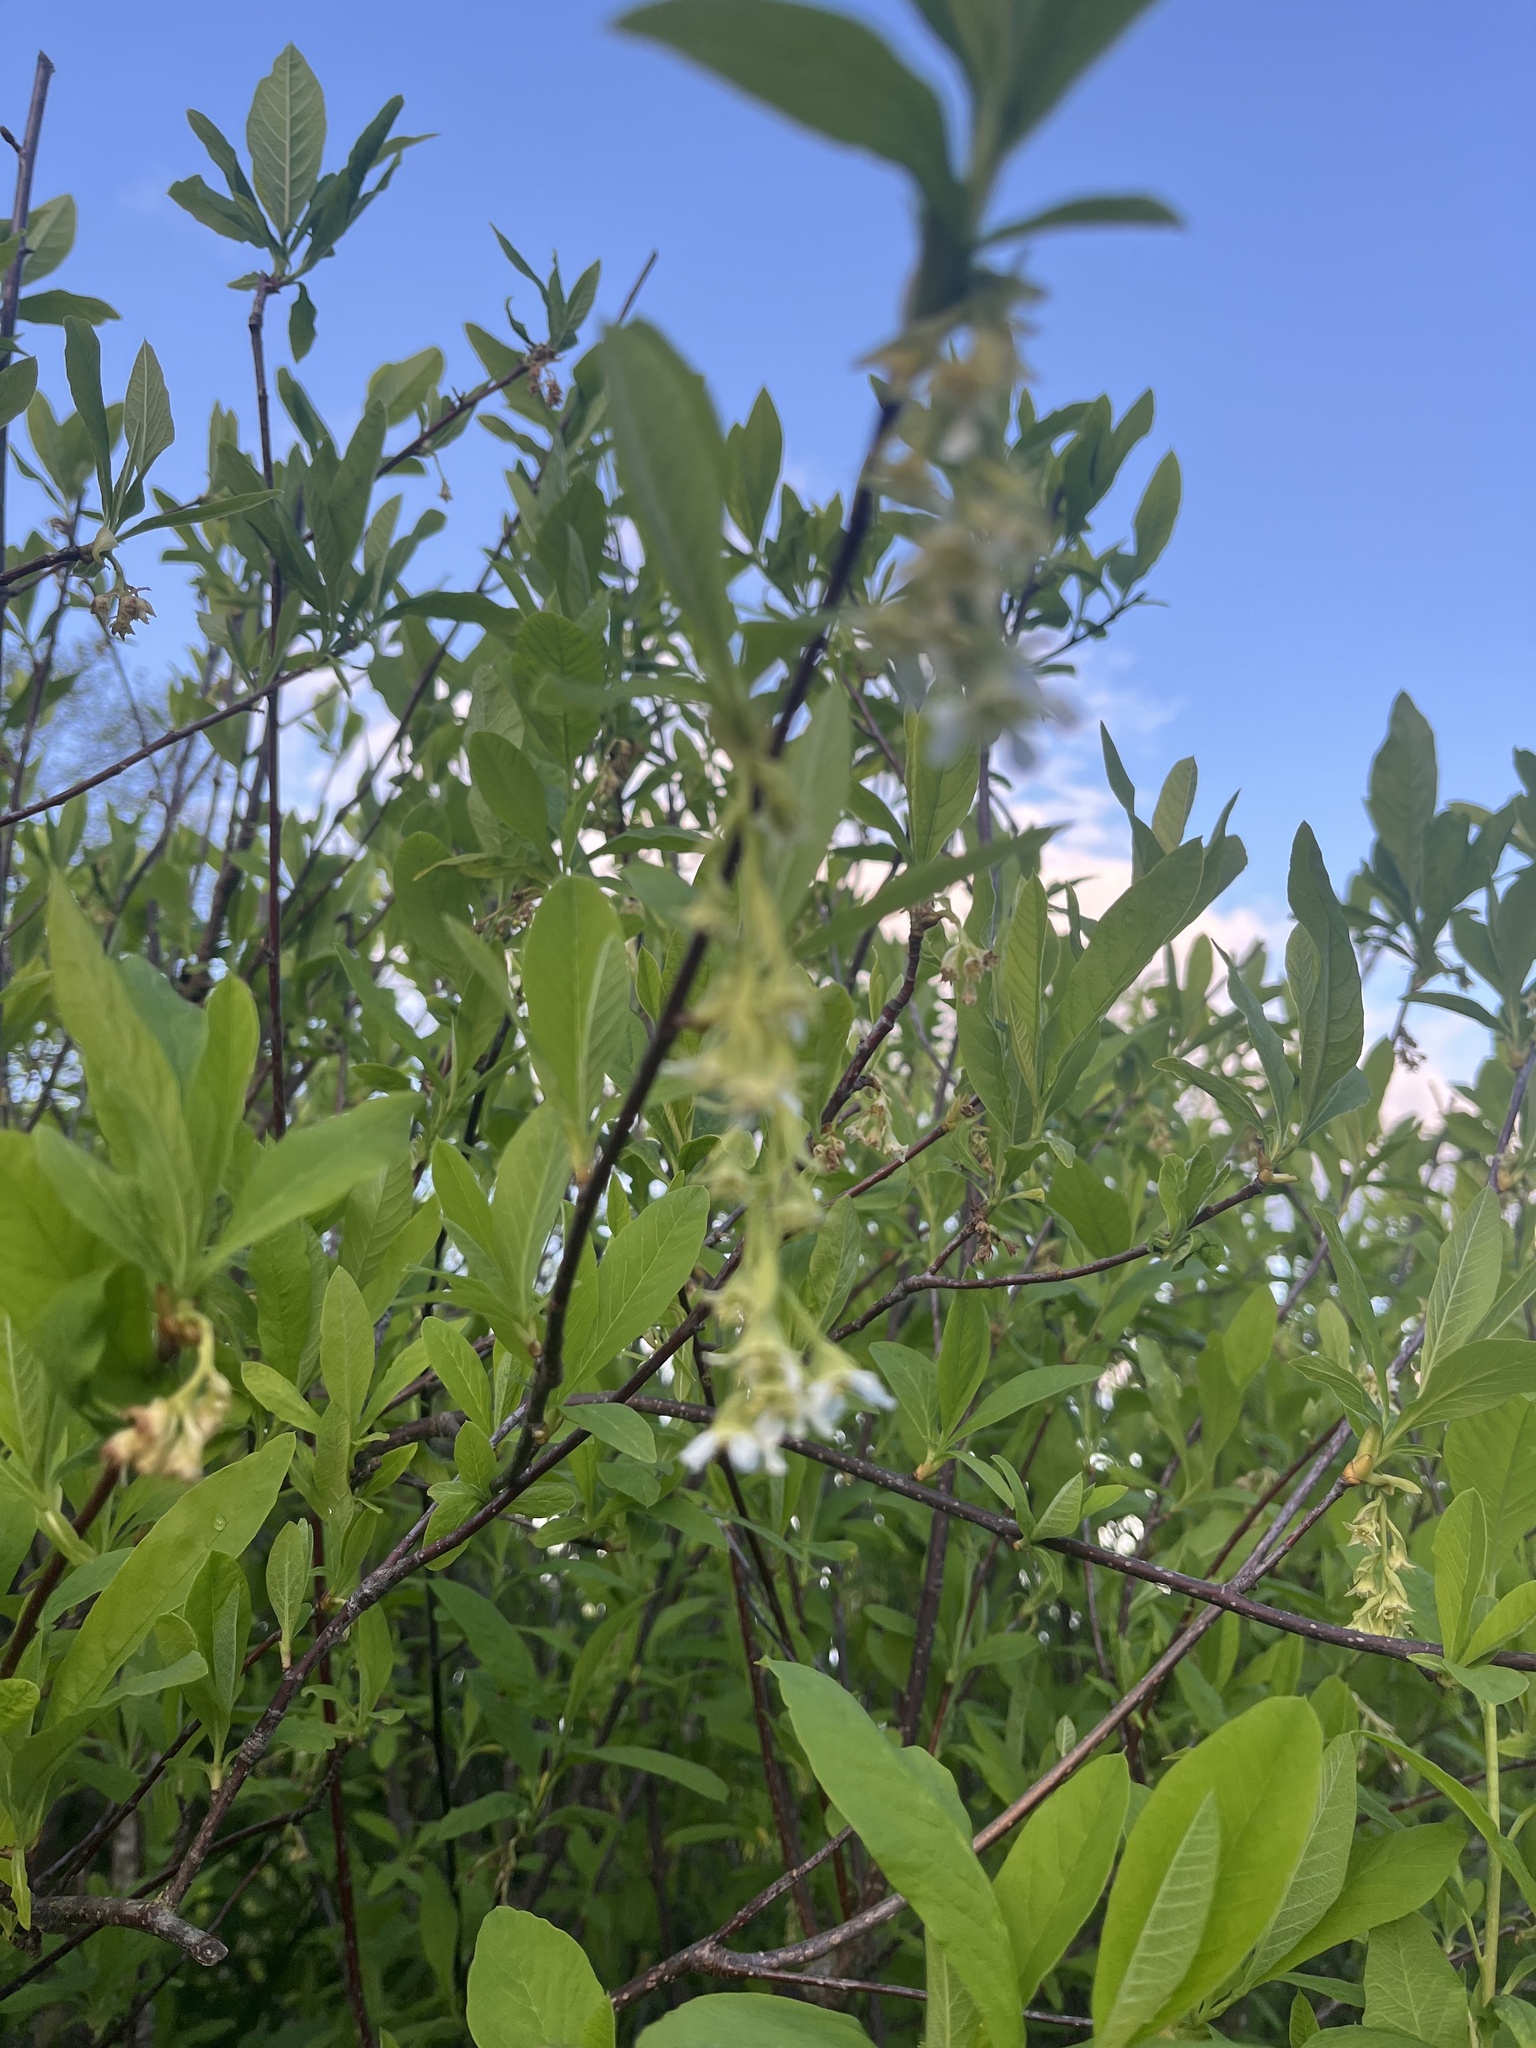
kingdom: Plantae
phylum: Tracheophyta
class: Magnoliopsida
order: Rosales
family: Rosaceae
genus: Oemleria
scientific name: Oemleria cerasiformis
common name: Osoberry
